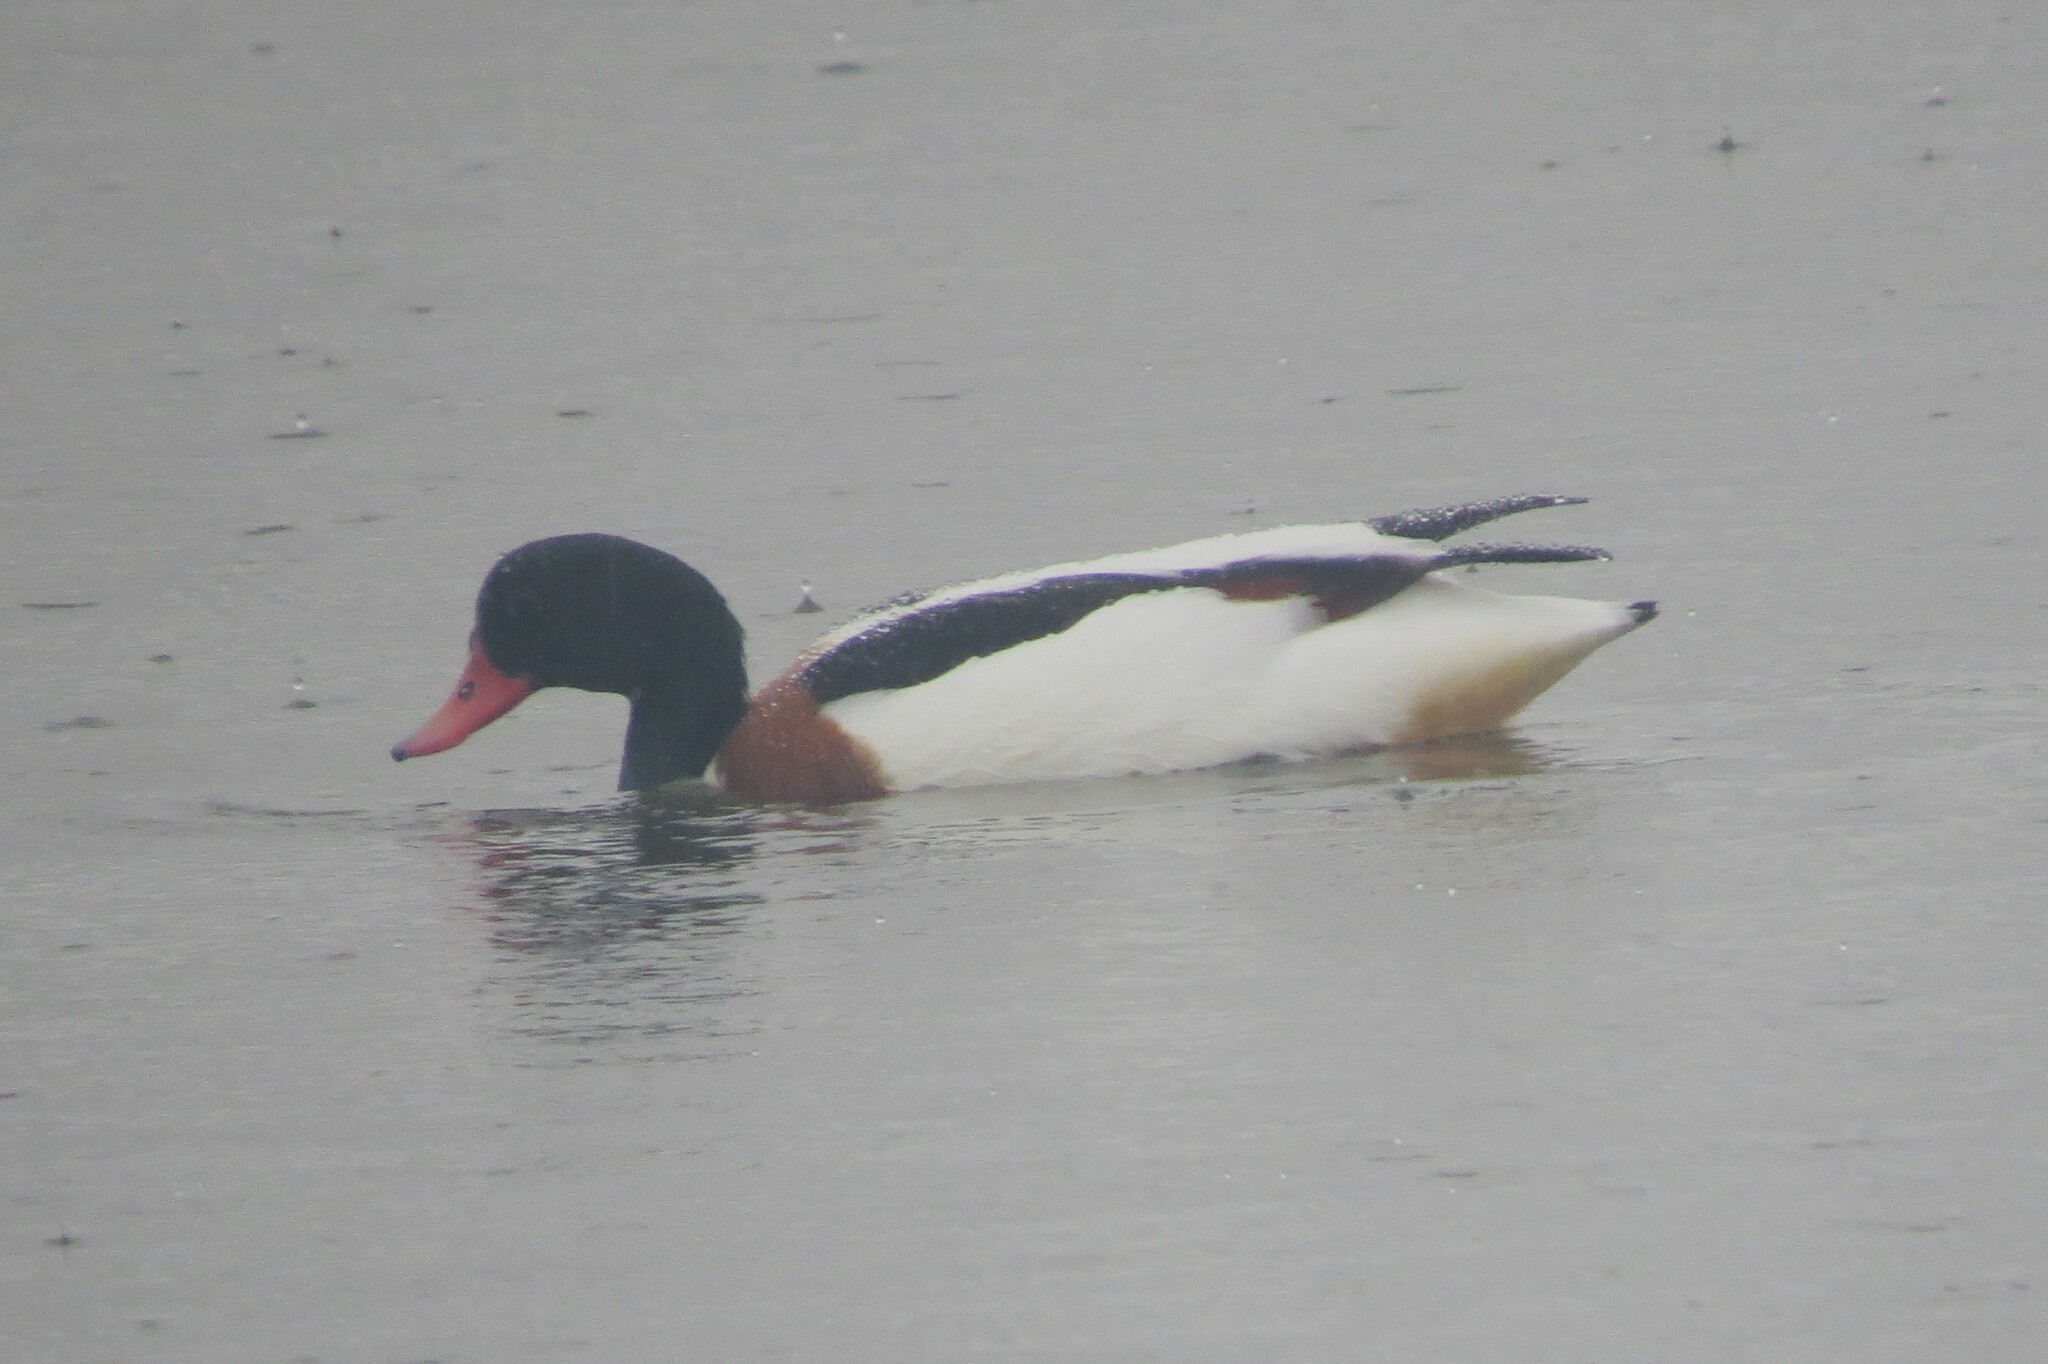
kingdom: Animalia
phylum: Chordata
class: Aves
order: Anseriformes
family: Anatidae
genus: Tadorna
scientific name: Tadorna tadorna
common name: Common shelduck
